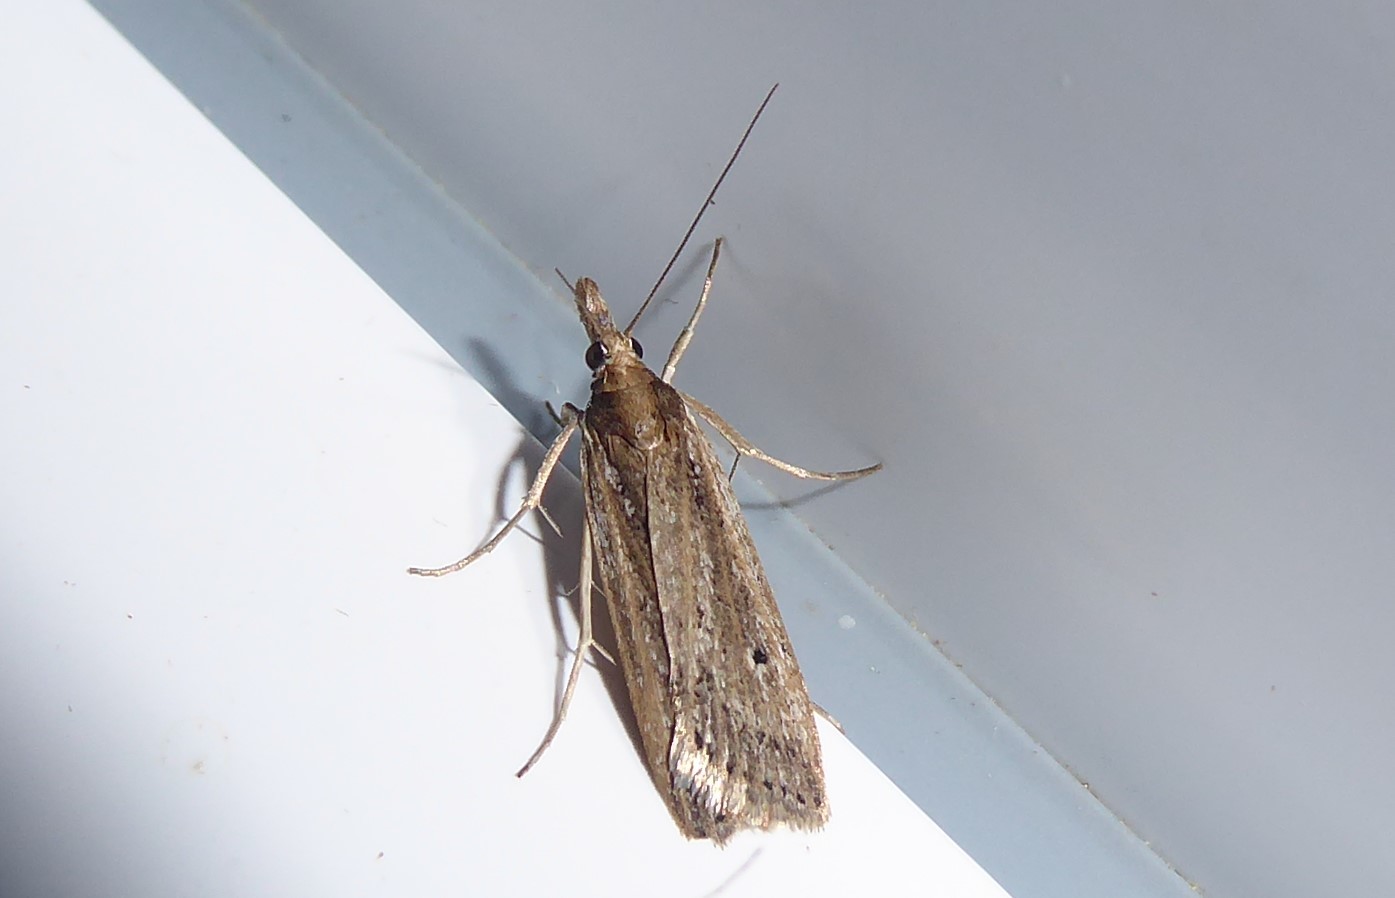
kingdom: Animalia
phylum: Arthropoda
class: Insecta
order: Lepidoptera
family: Crambidae
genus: Eudonia
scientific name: Eudonia sabulosella
